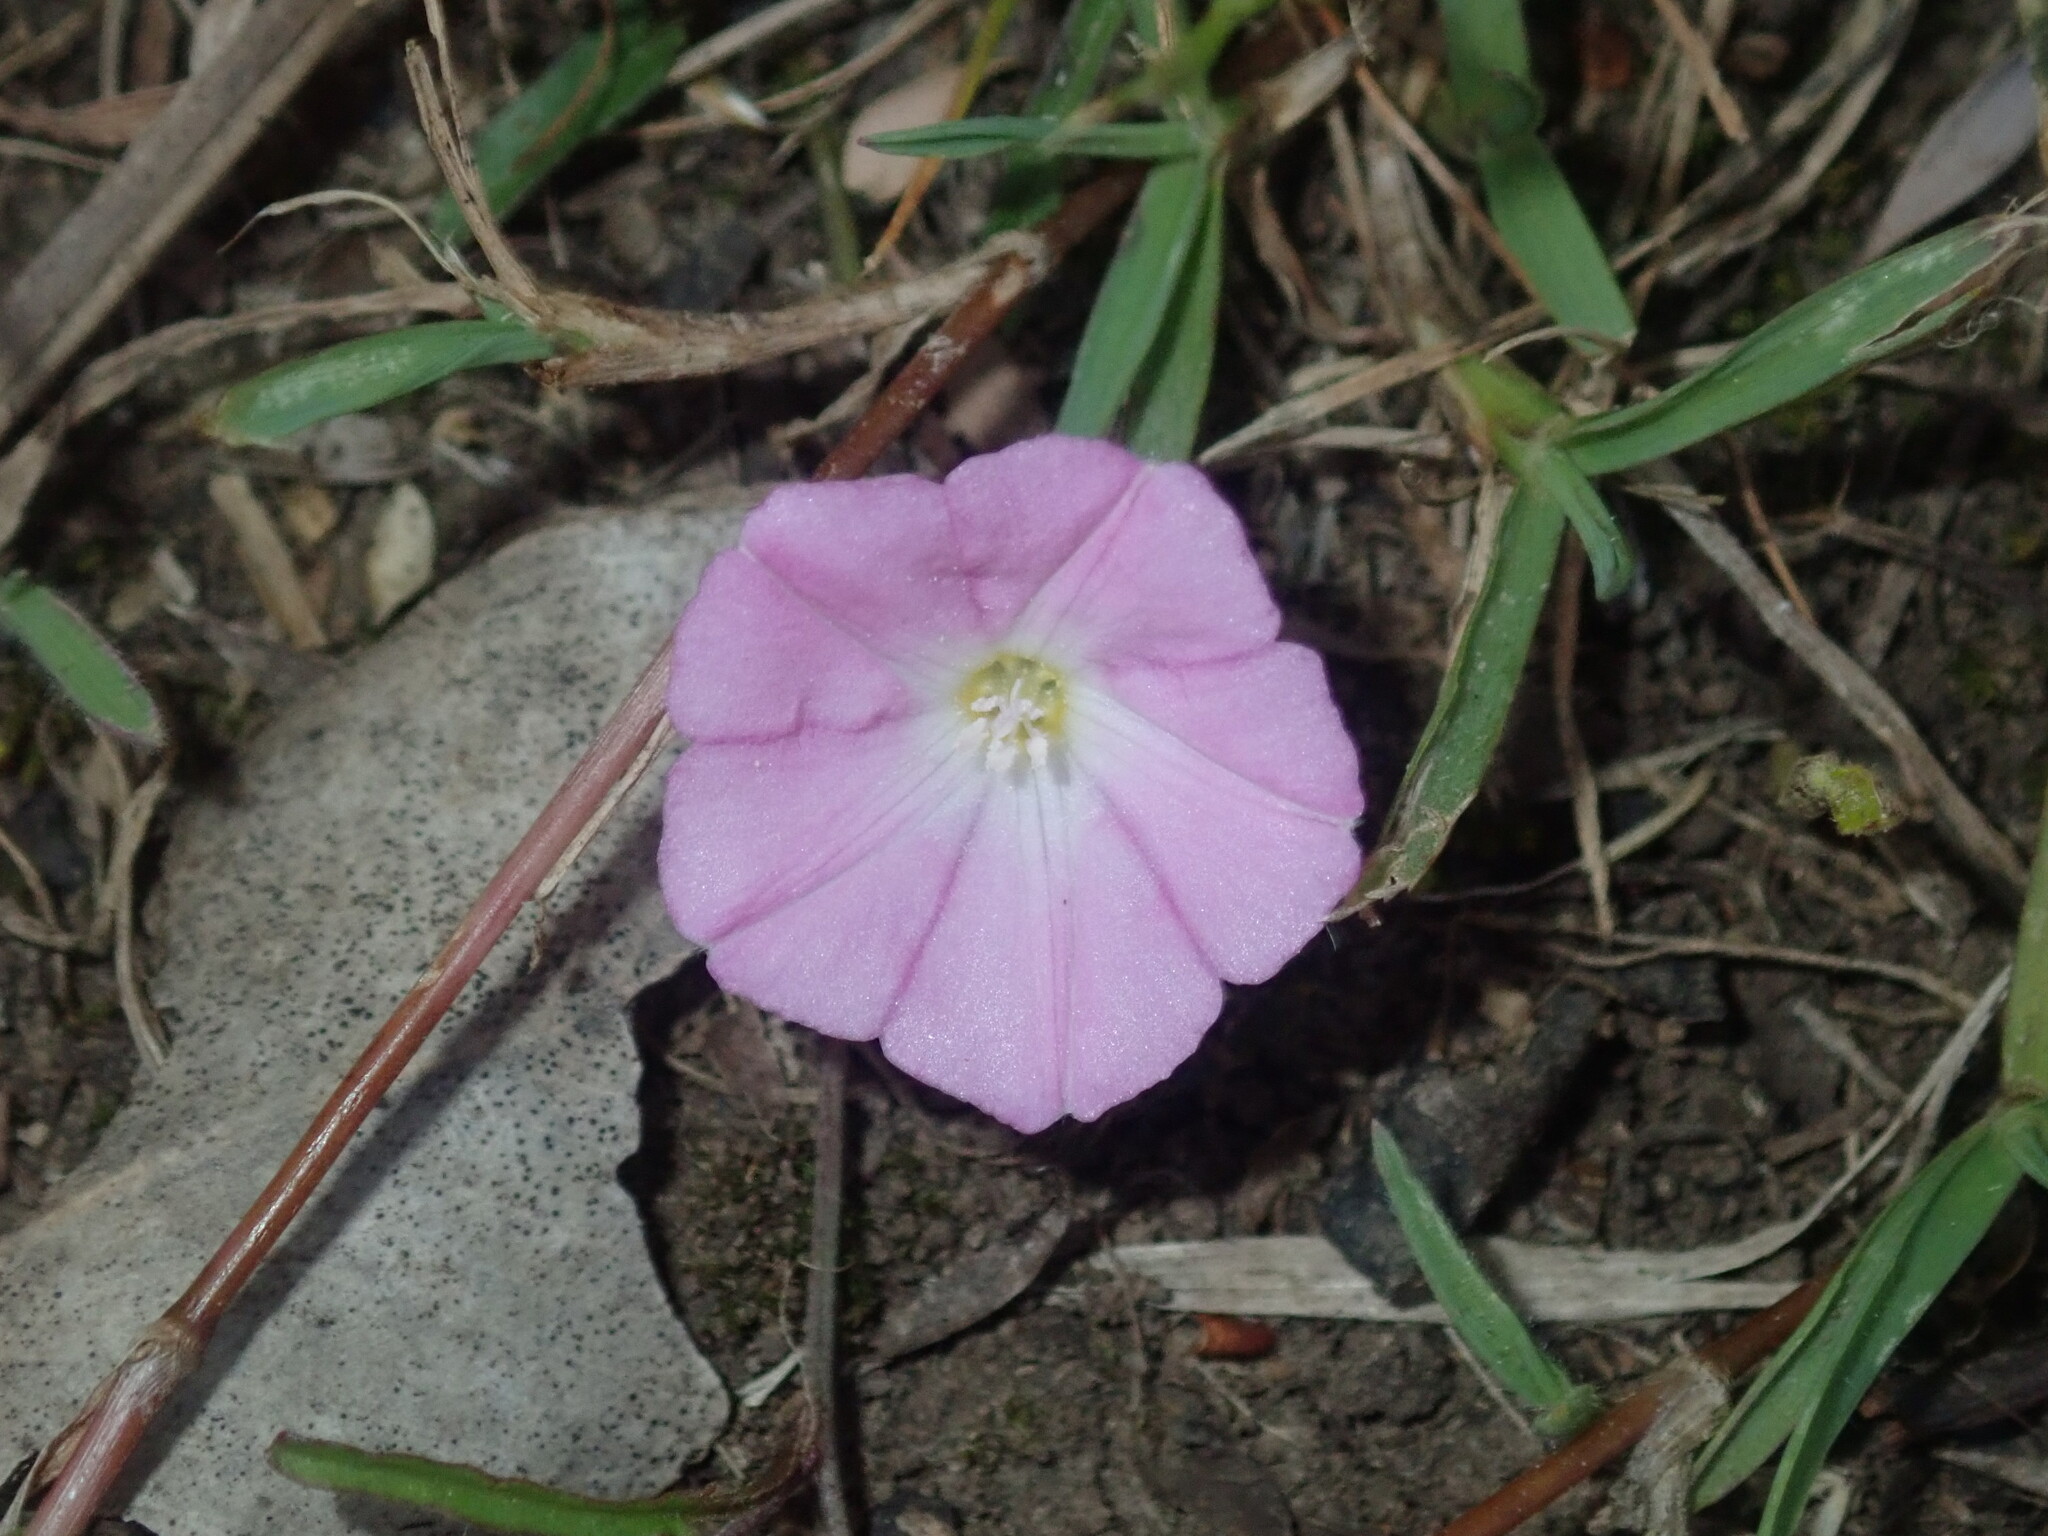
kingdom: Plantae
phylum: Tracheophyta
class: Magnoliopsida
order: Solanales
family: Convolvulaceae
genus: Polymeria
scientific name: Polymeria calycina
